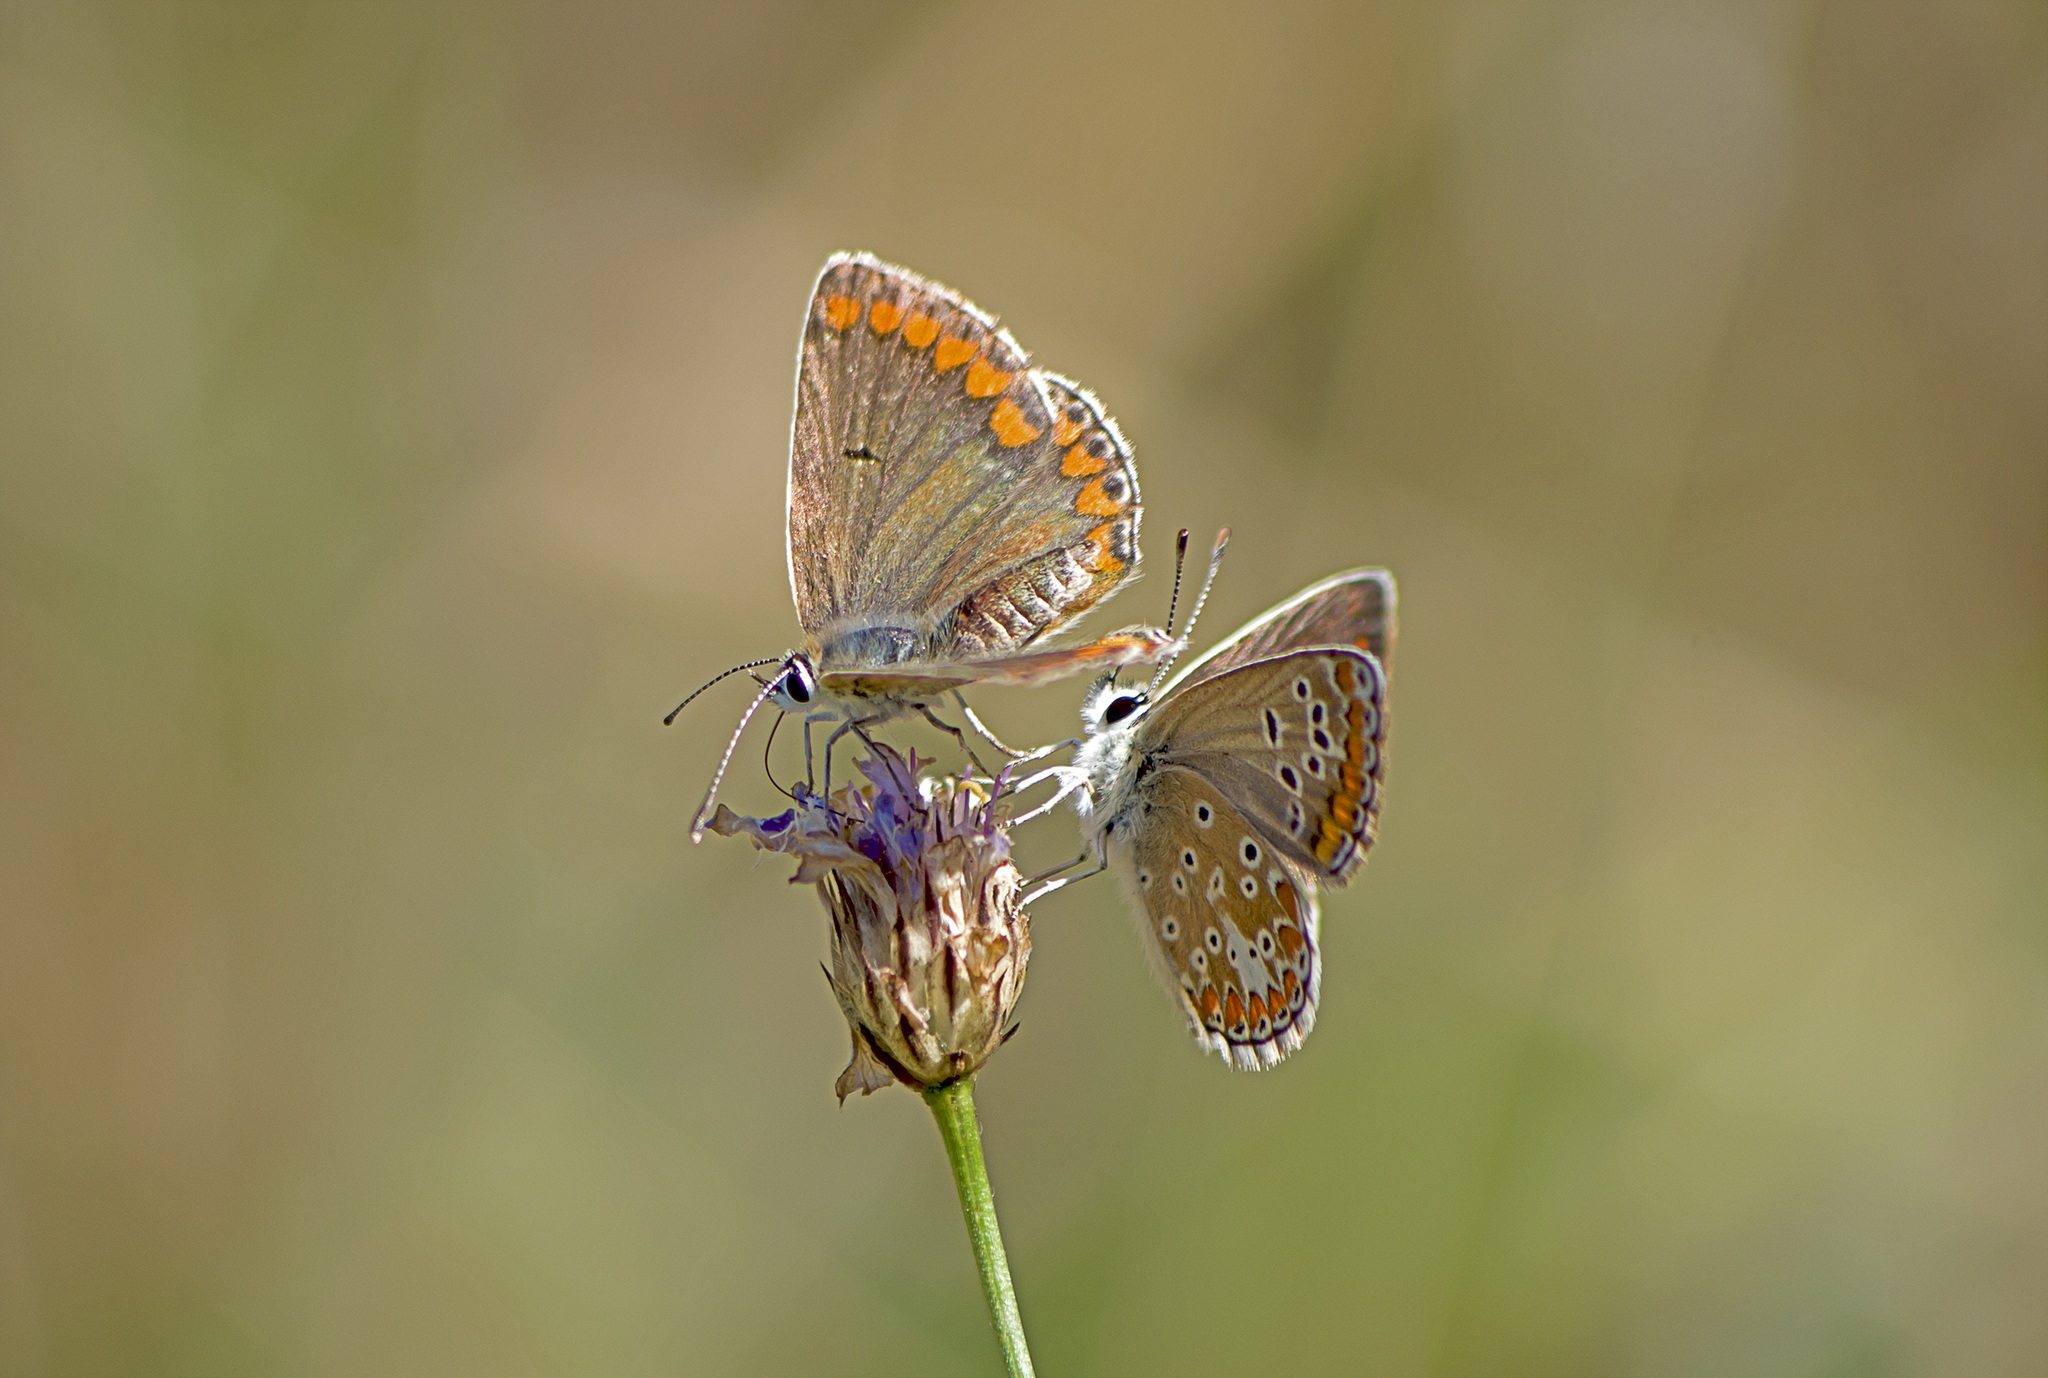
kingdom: Animalia
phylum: Arthropoda
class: Insecta
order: Lepidoptera
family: Lycaenidae
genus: Aricia
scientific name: Aricia agestis
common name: Brown argus
